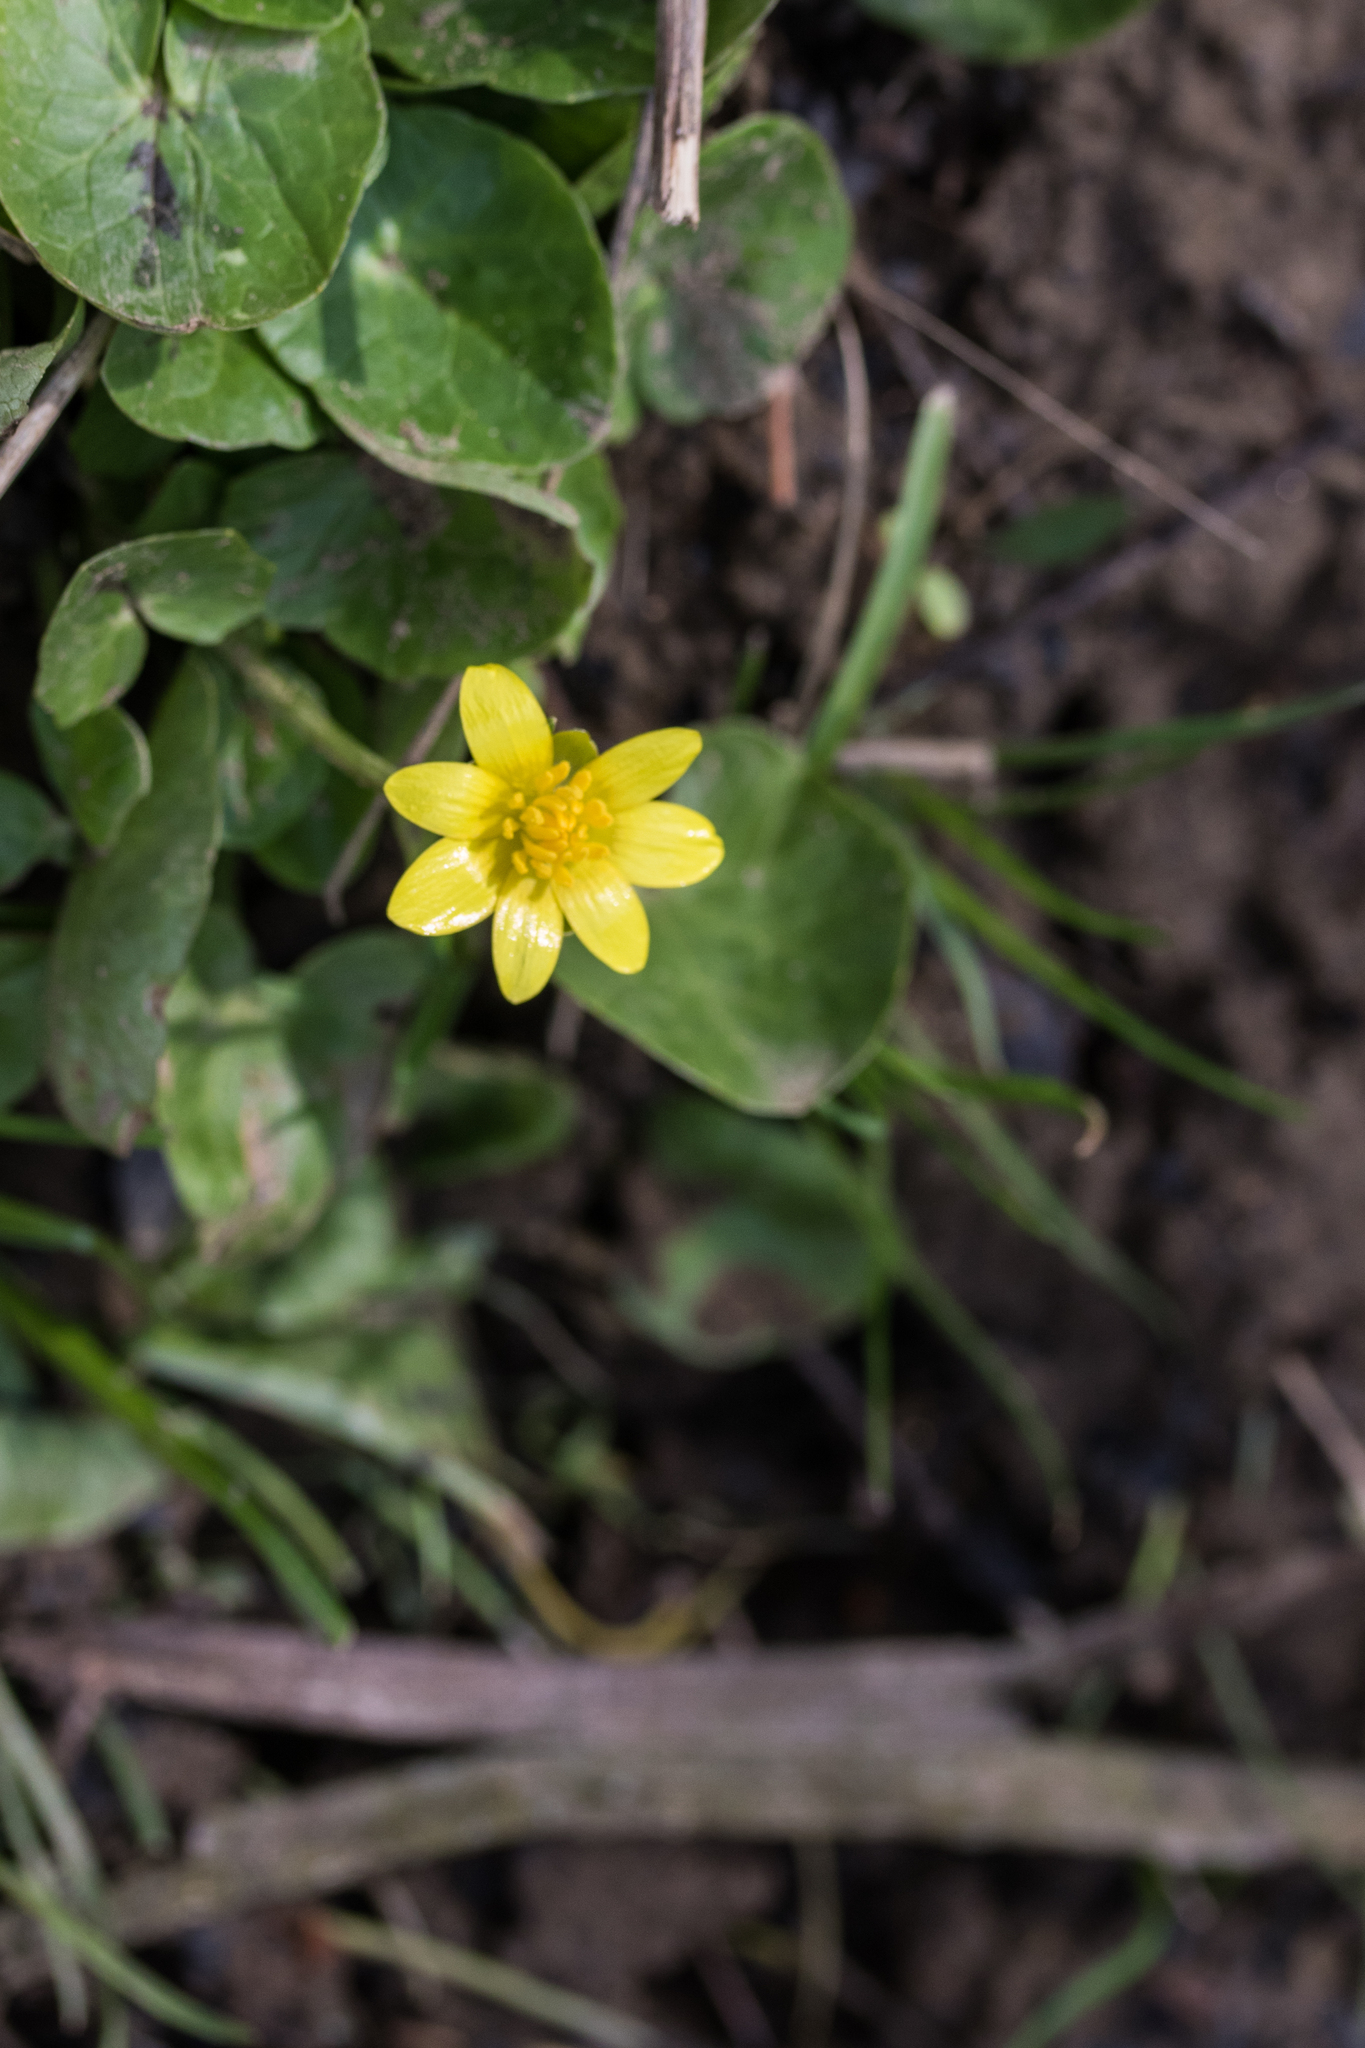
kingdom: Plantae
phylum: Tracheophyta
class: Magnoliopsida
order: Ranunculales
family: Ranunculaceae
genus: Ficaria
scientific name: Ficaria verna
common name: Lesser celandine
